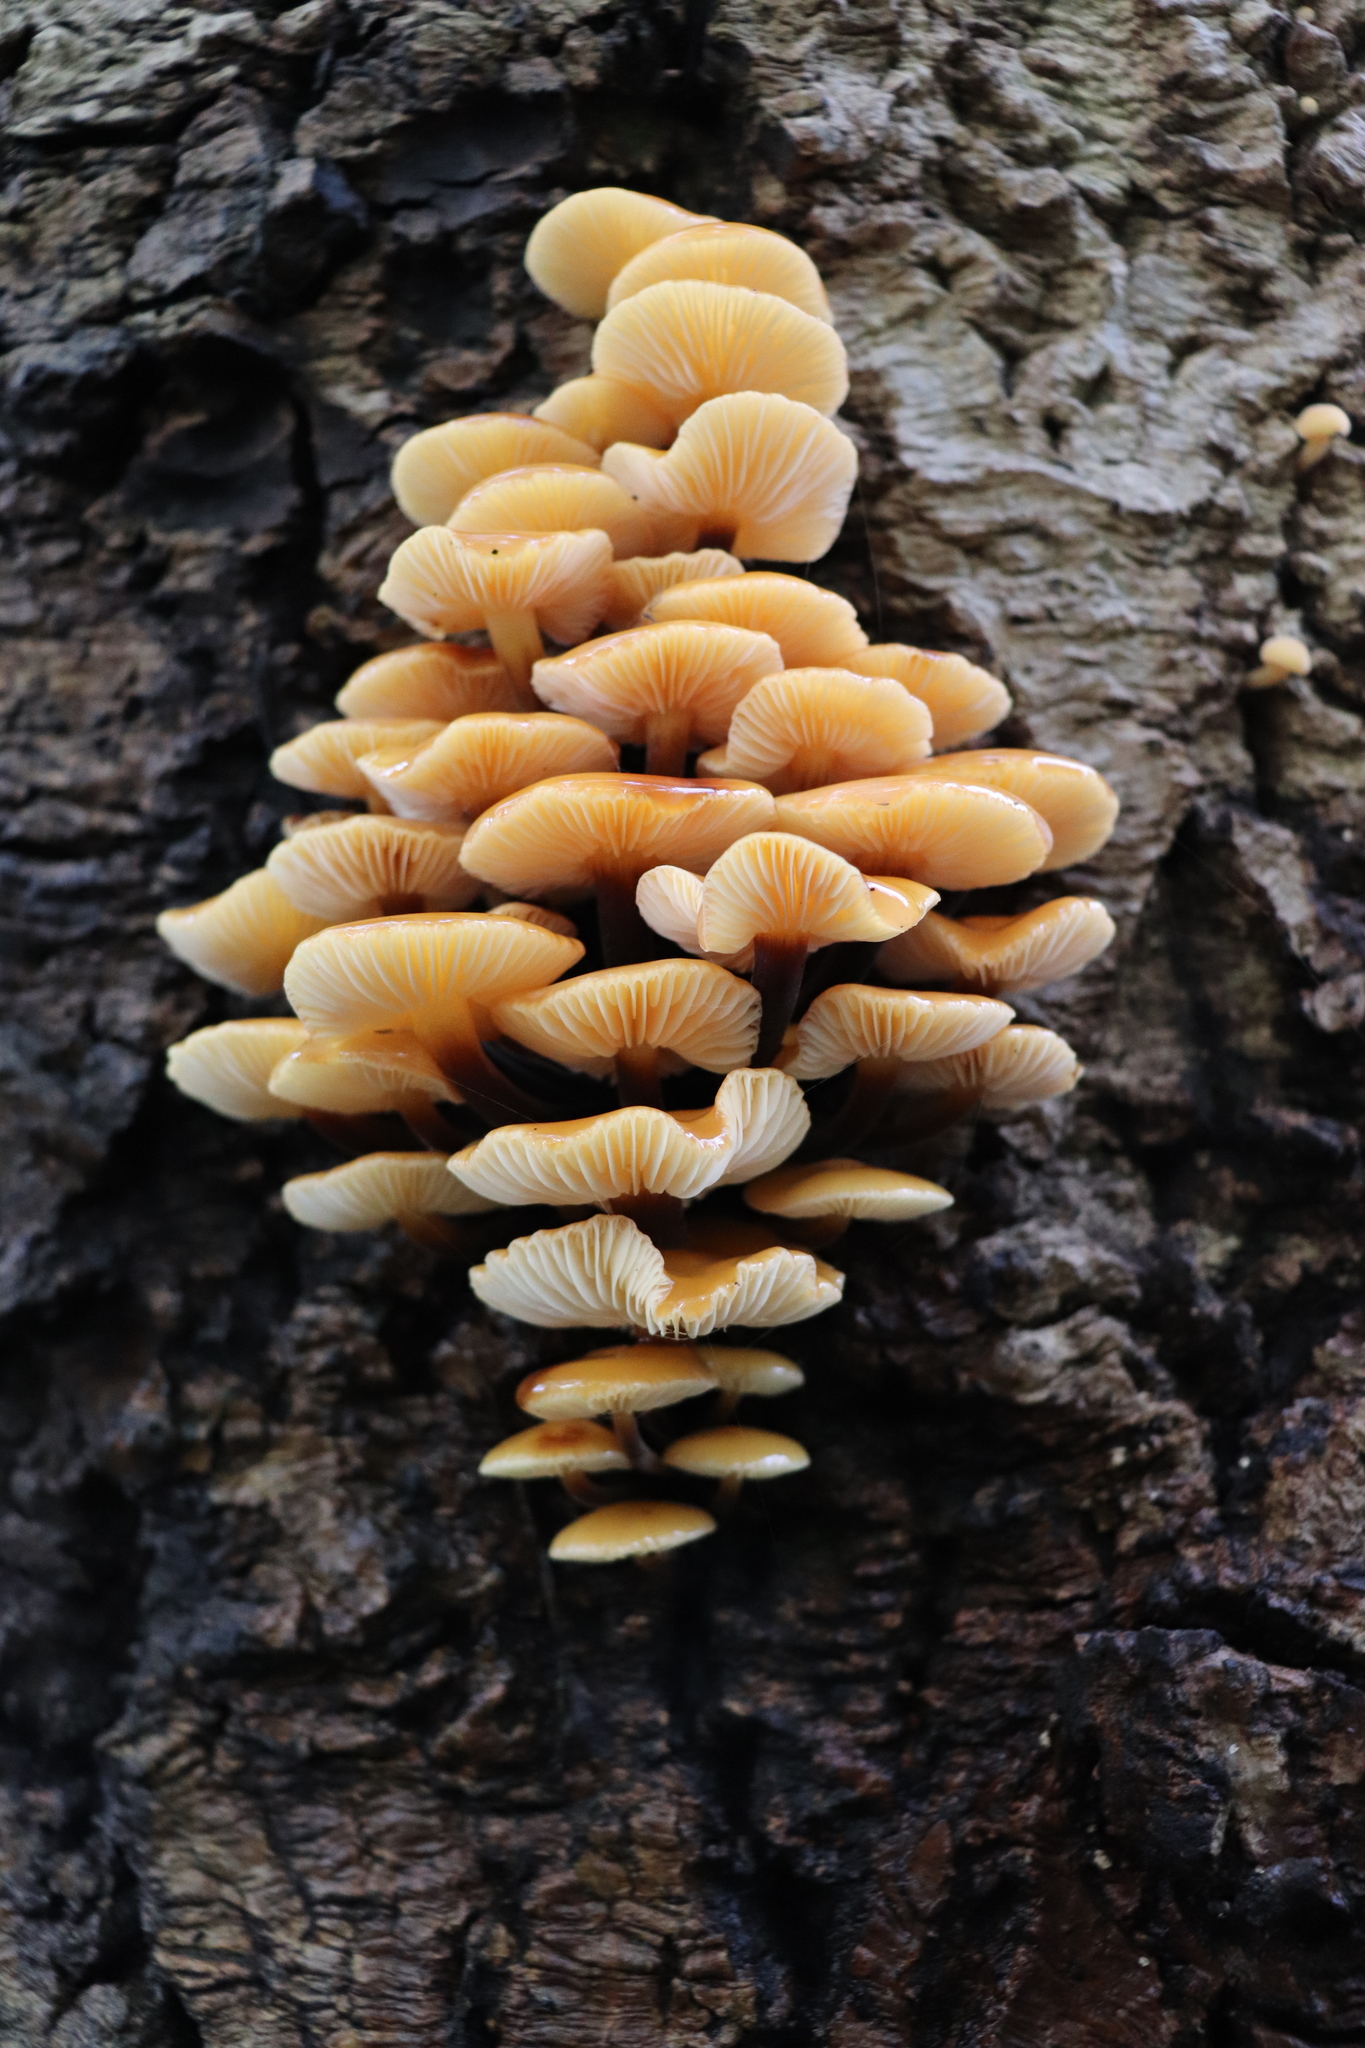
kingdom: Fungi
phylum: Basidiomycota
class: Agaricomycetes
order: Agaricales
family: Physalacriaceae
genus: Flammulina
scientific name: Flammulina velutipes
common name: Velvet shank
